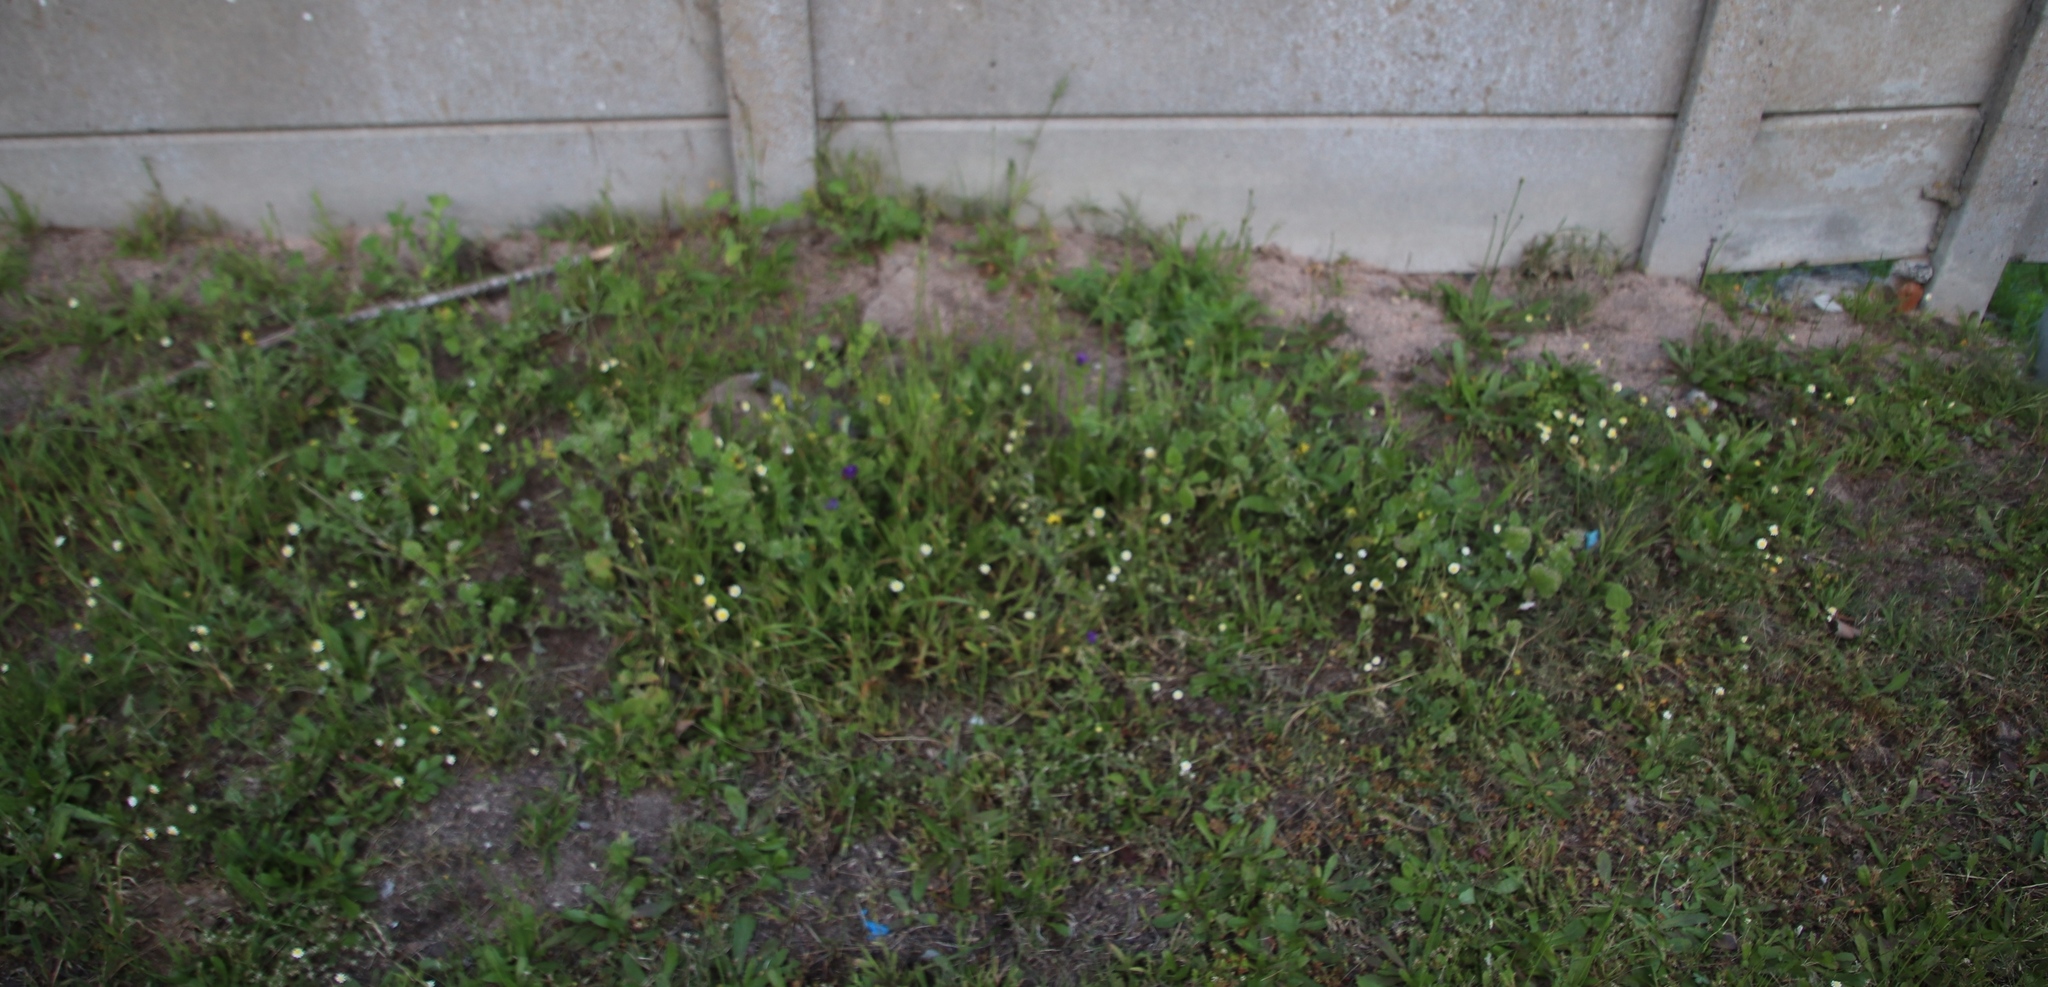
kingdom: Plantae
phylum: Tracheophyta
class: Magnoliopsida
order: Asterales
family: Asteraceae
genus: Cotula
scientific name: Cotula turbinata
